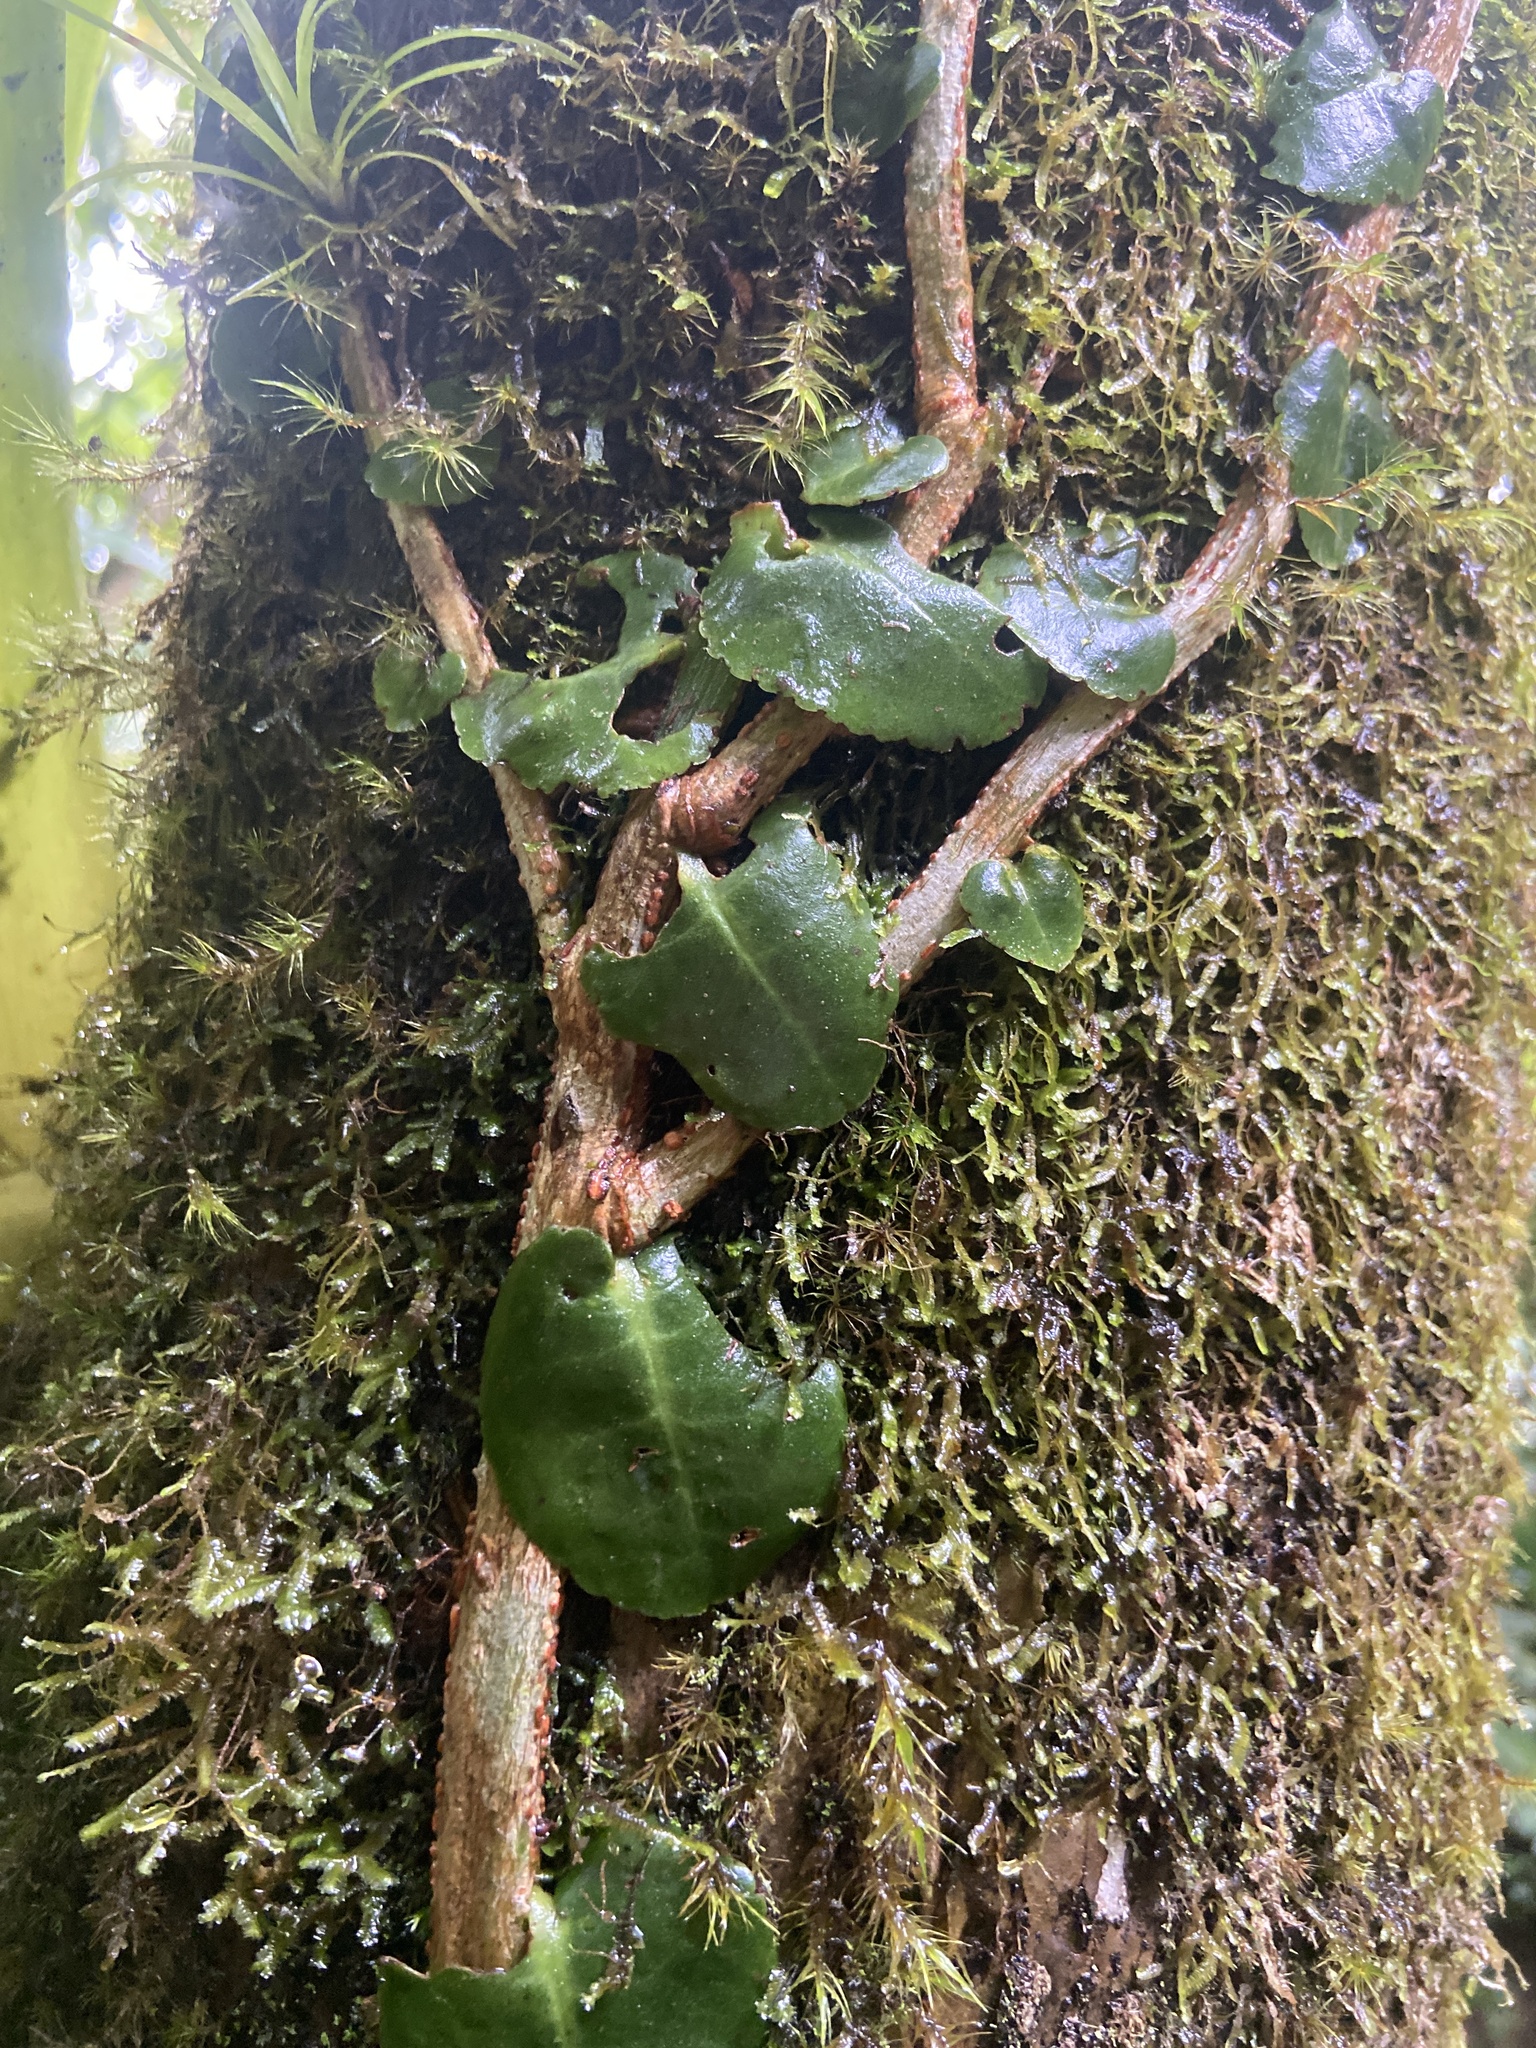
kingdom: Plantae
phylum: Tracheophyta
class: Magnoliopsida
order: Ericales
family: Marcgraviaceae
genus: Marcgravia
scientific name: Marcgravia rectiflora
